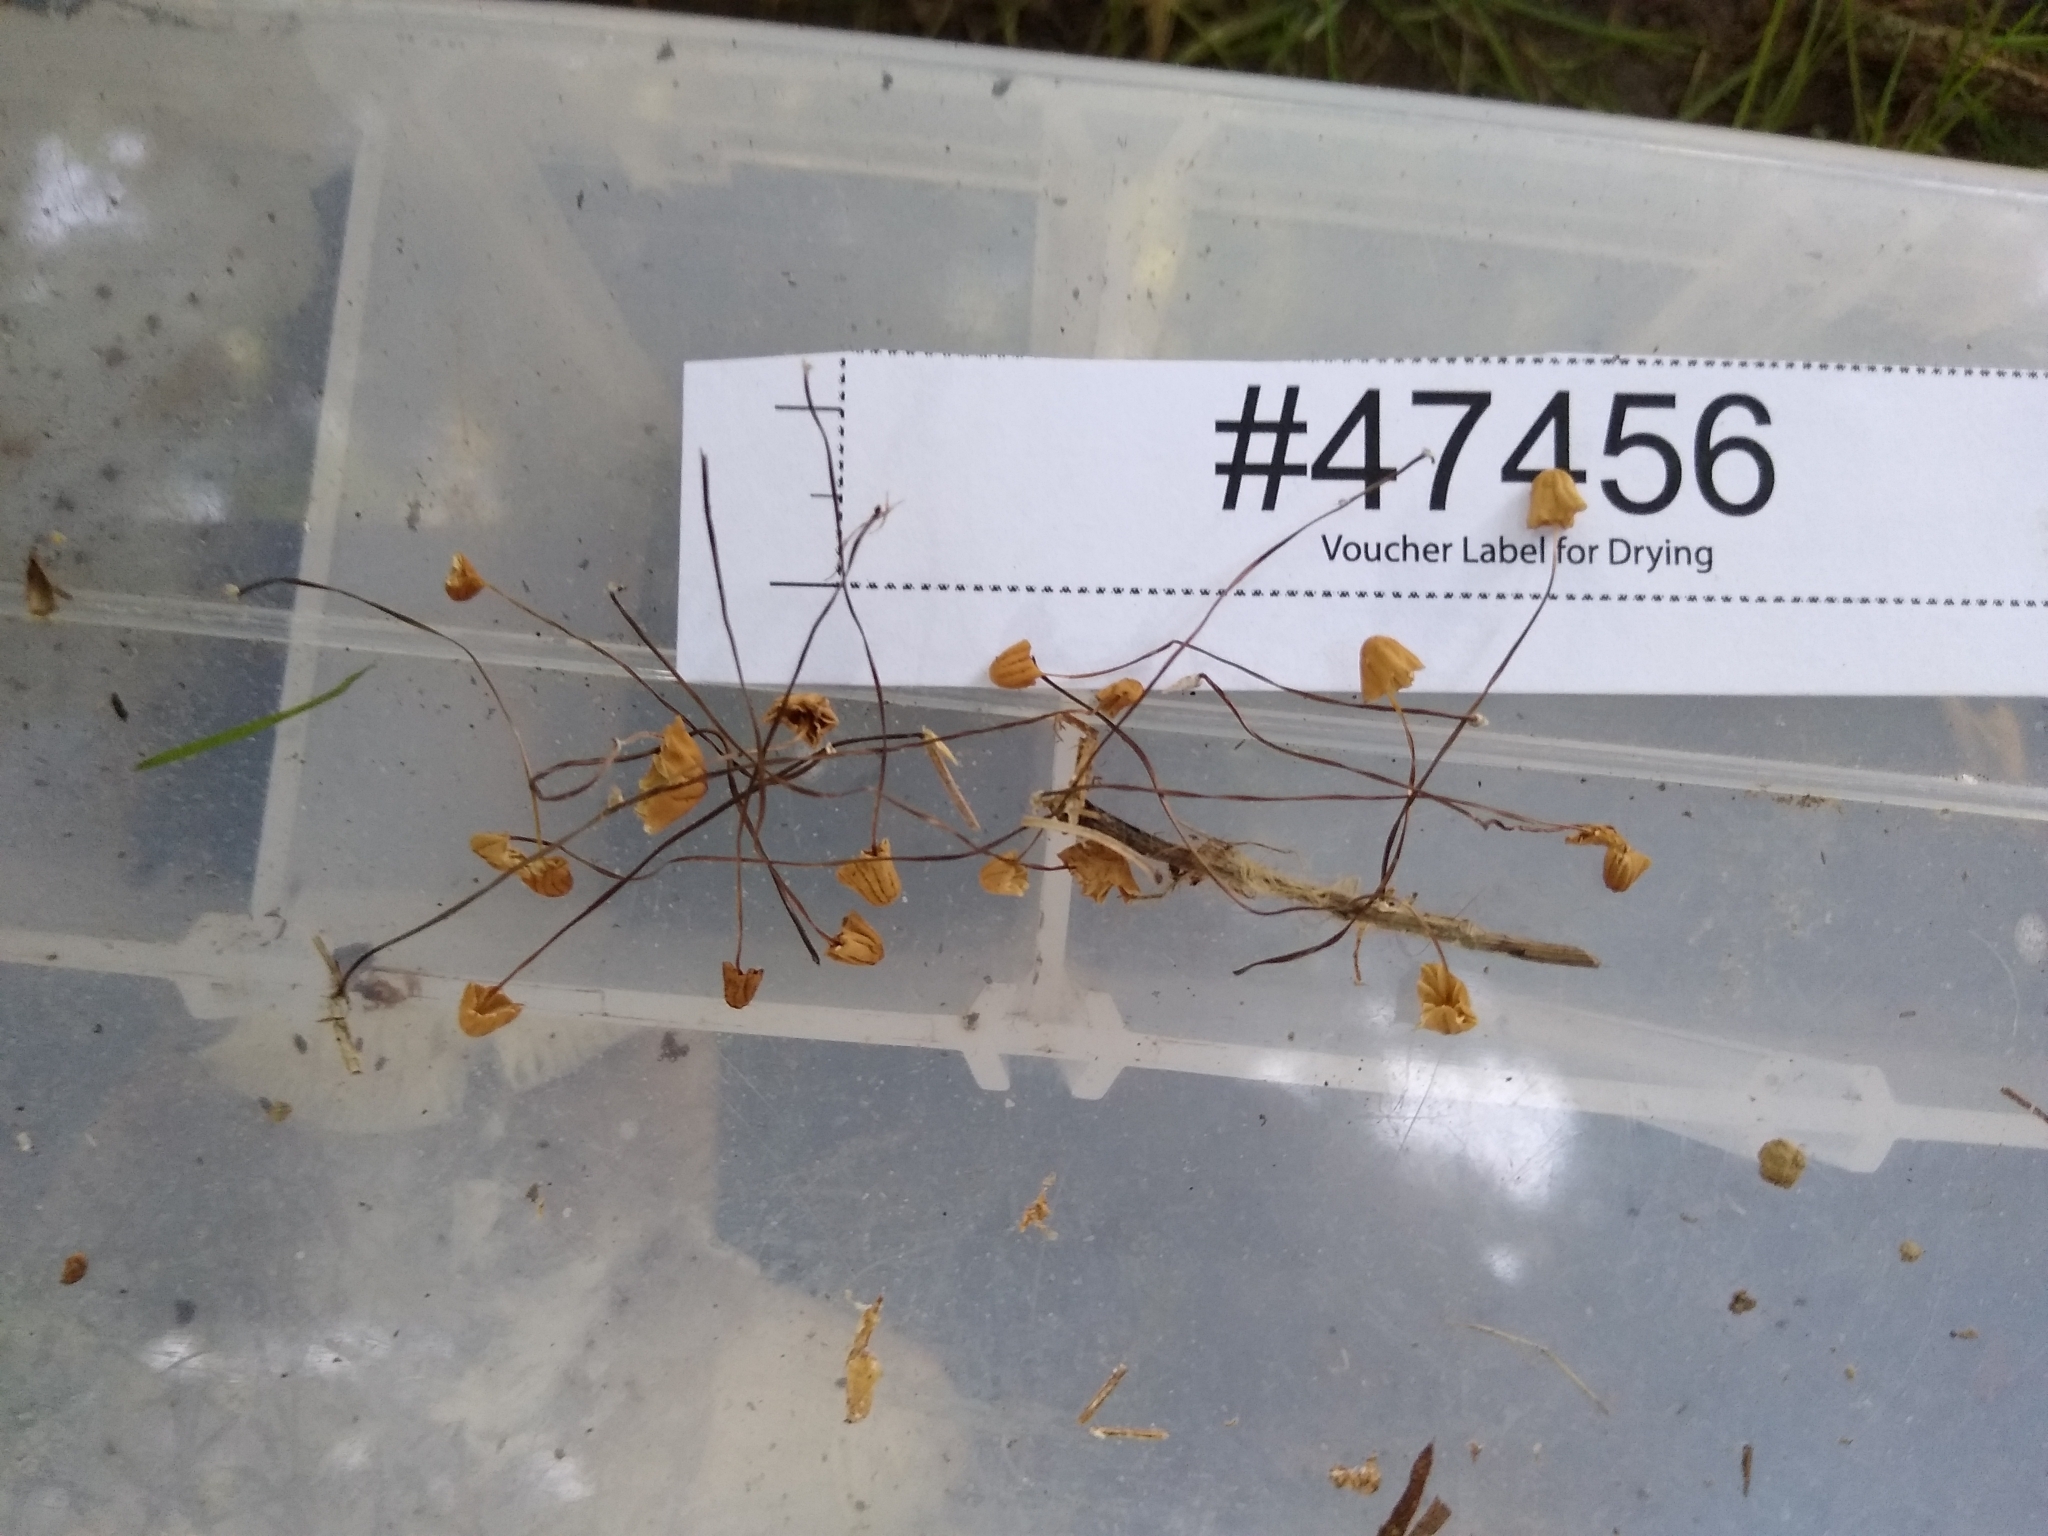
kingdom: Fungi
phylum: Basidiomycota
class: Agaricomycetes
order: Agaricales
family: Marasmiaceae
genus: Marasmius
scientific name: Marasmius haematocephalus
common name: Purple pinwheel
